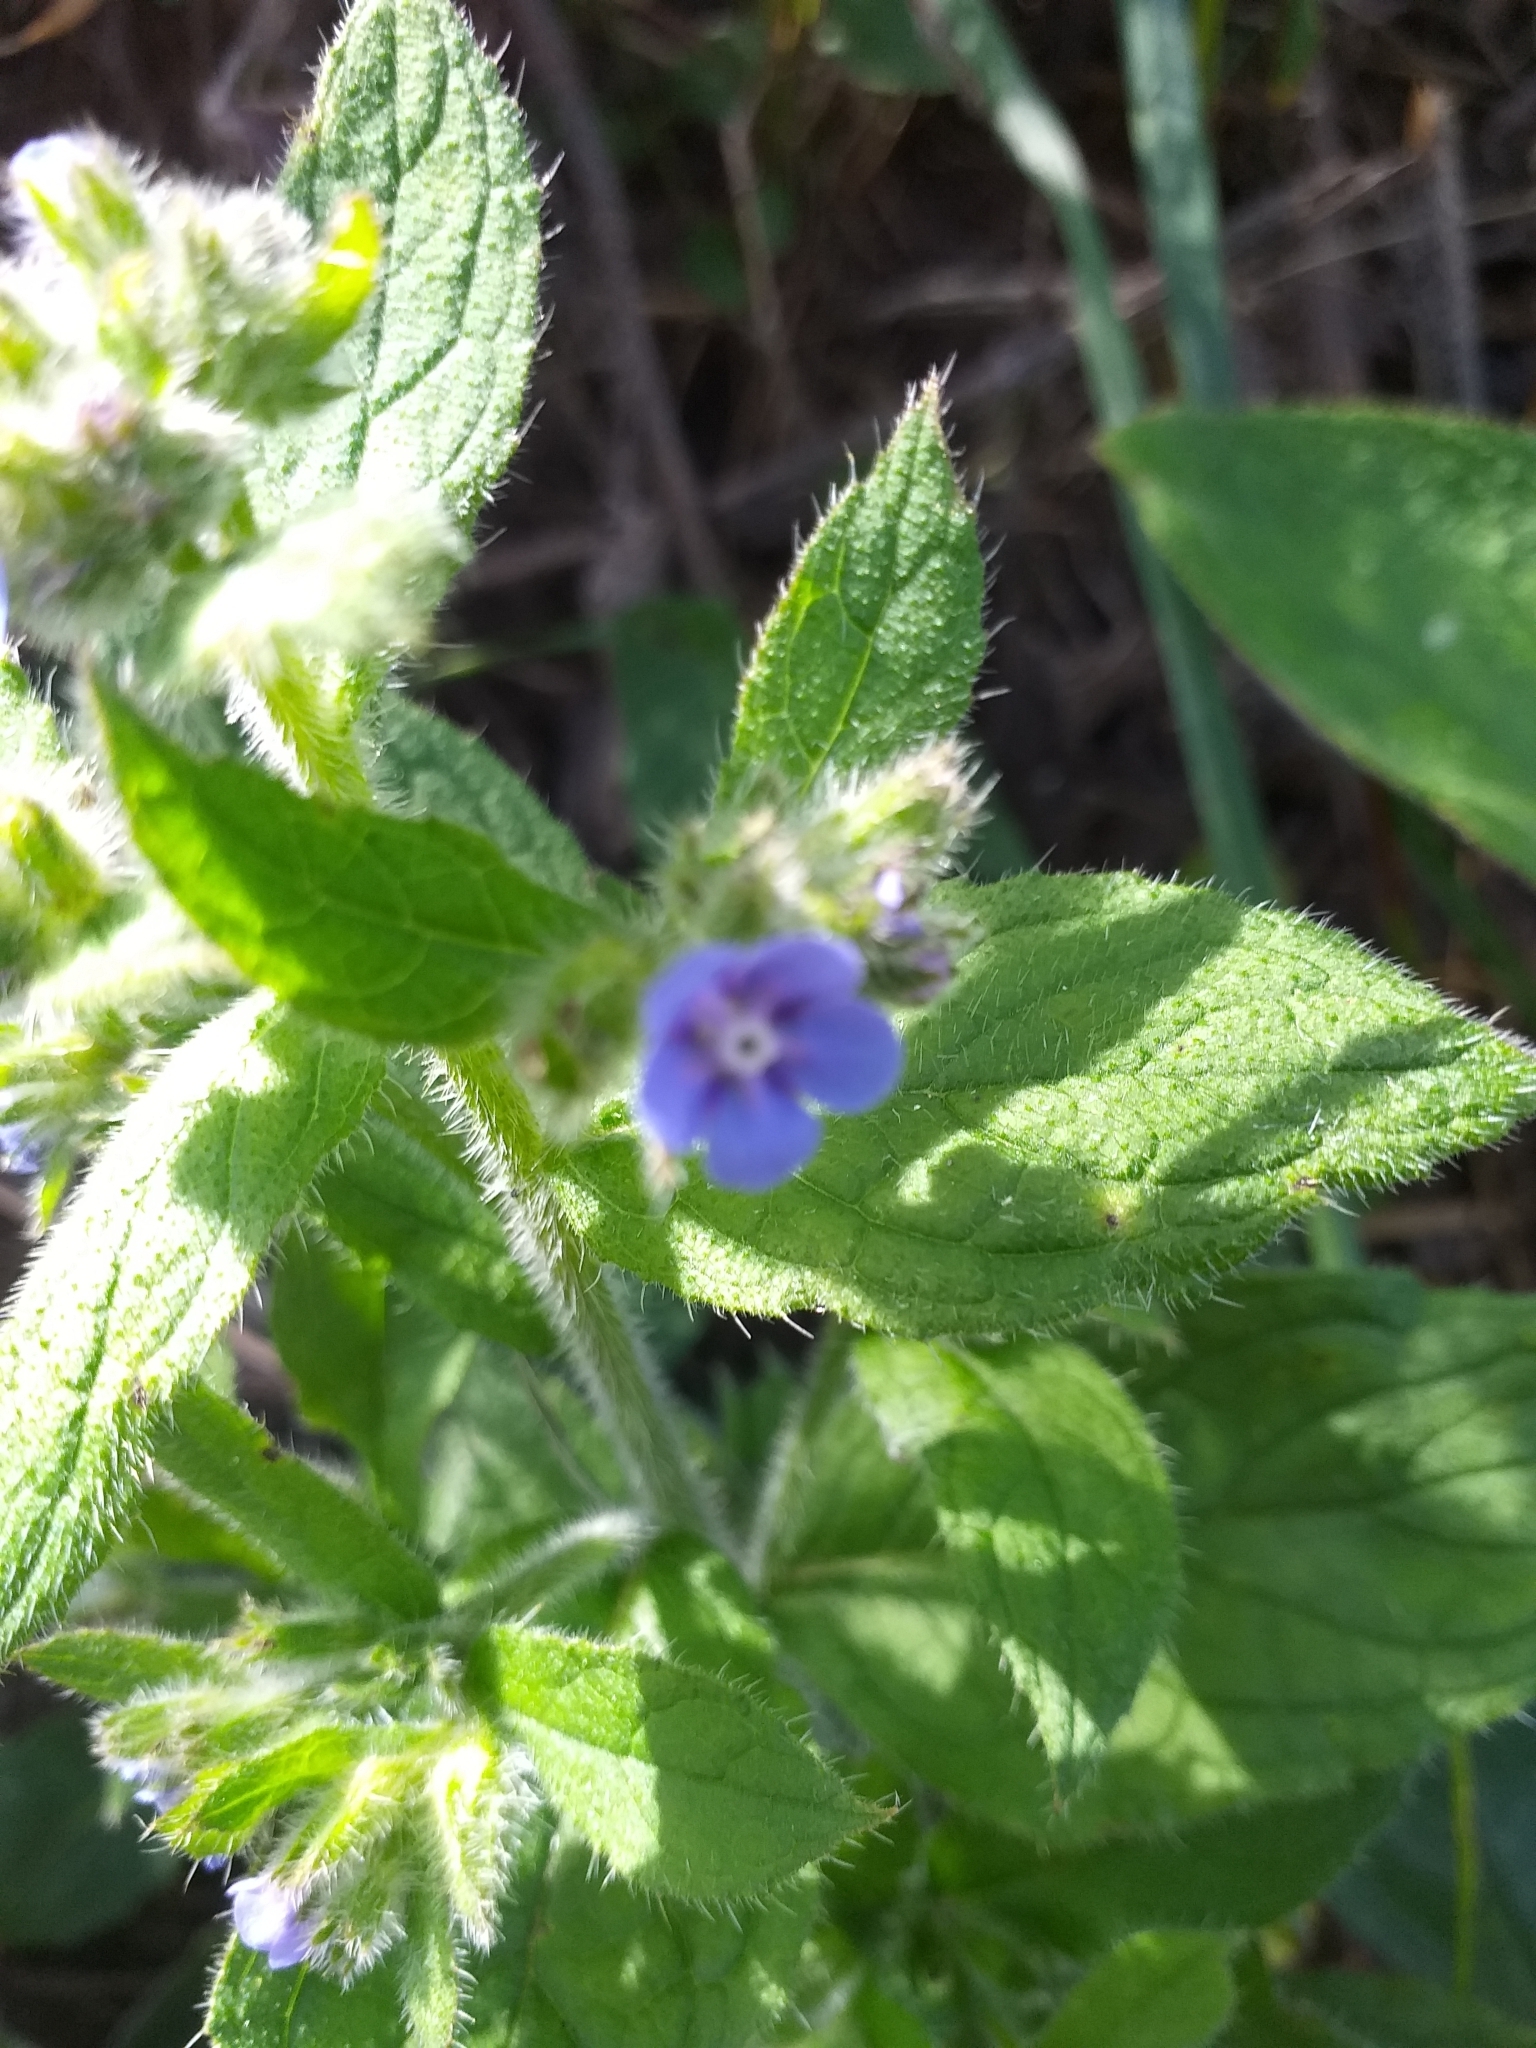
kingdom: Plantae
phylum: Tracheophyta
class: Magnoliopsida
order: Boraginales
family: Boraginaceae
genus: Pentaglottis
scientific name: Pentaglottis sempervirens
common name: Green alkanet
